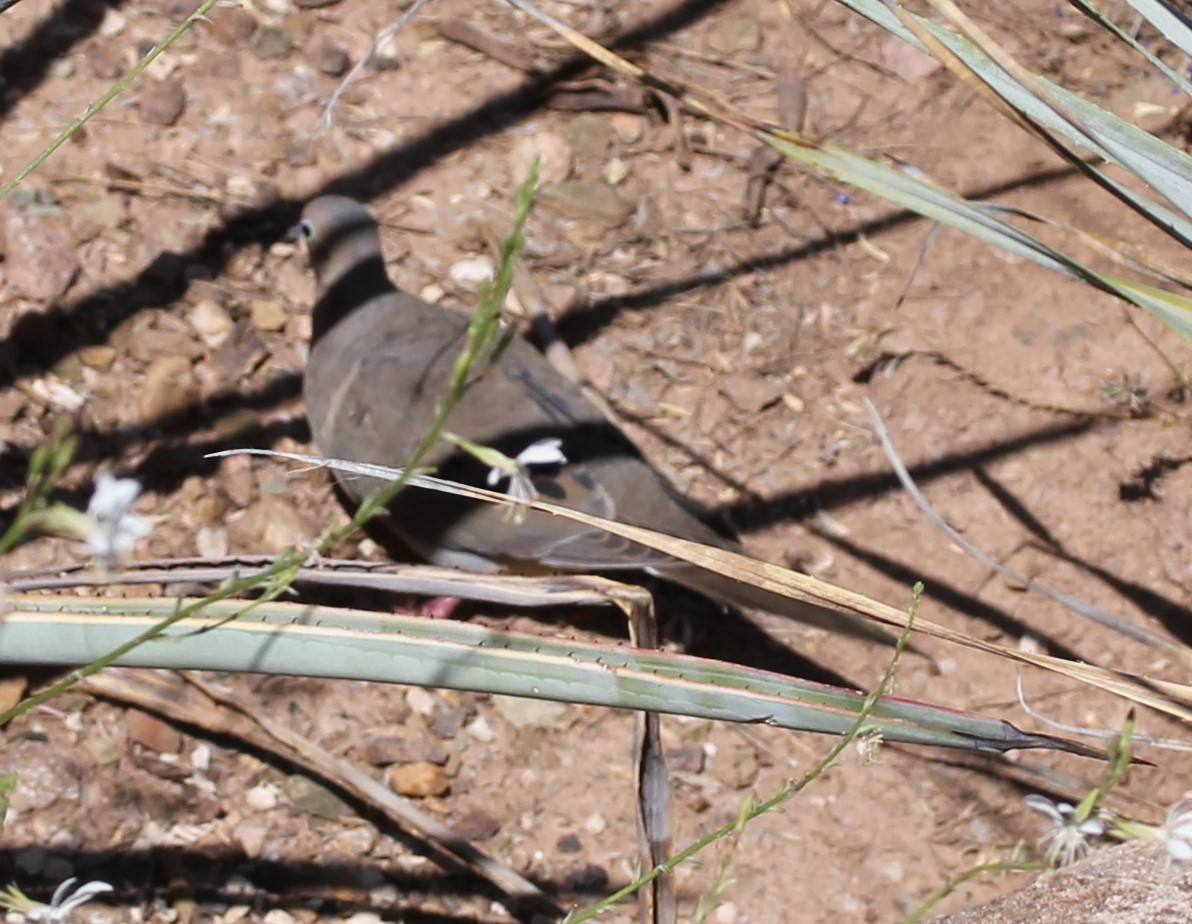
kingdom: Animalia
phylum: Chordata
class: Aves
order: Columbiformes
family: Columbidae
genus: Zenaida
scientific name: Zenaida macroura
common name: Mourning dove
